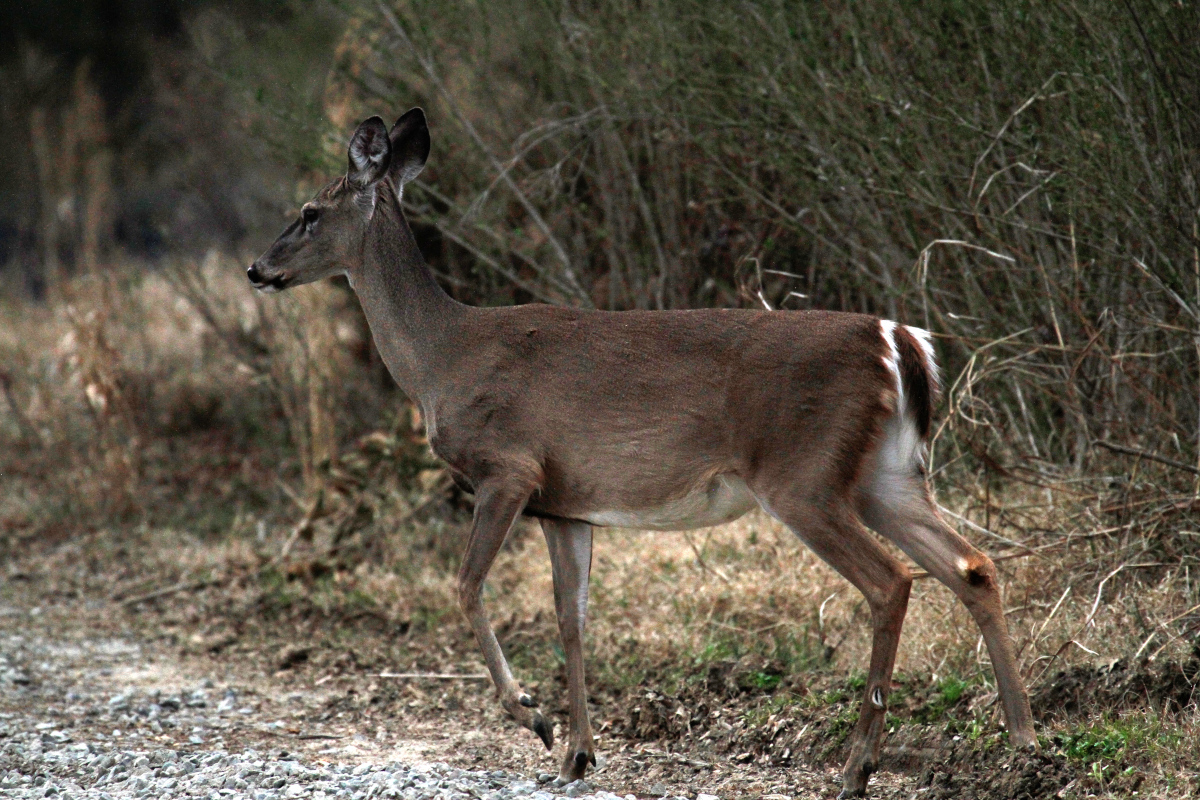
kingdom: Animalia
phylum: Chordata
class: Mammalia
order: Artiodactyla
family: Cervidae
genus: Odocoileus
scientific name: Odocoileus virginianus
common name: White-tailed deer
